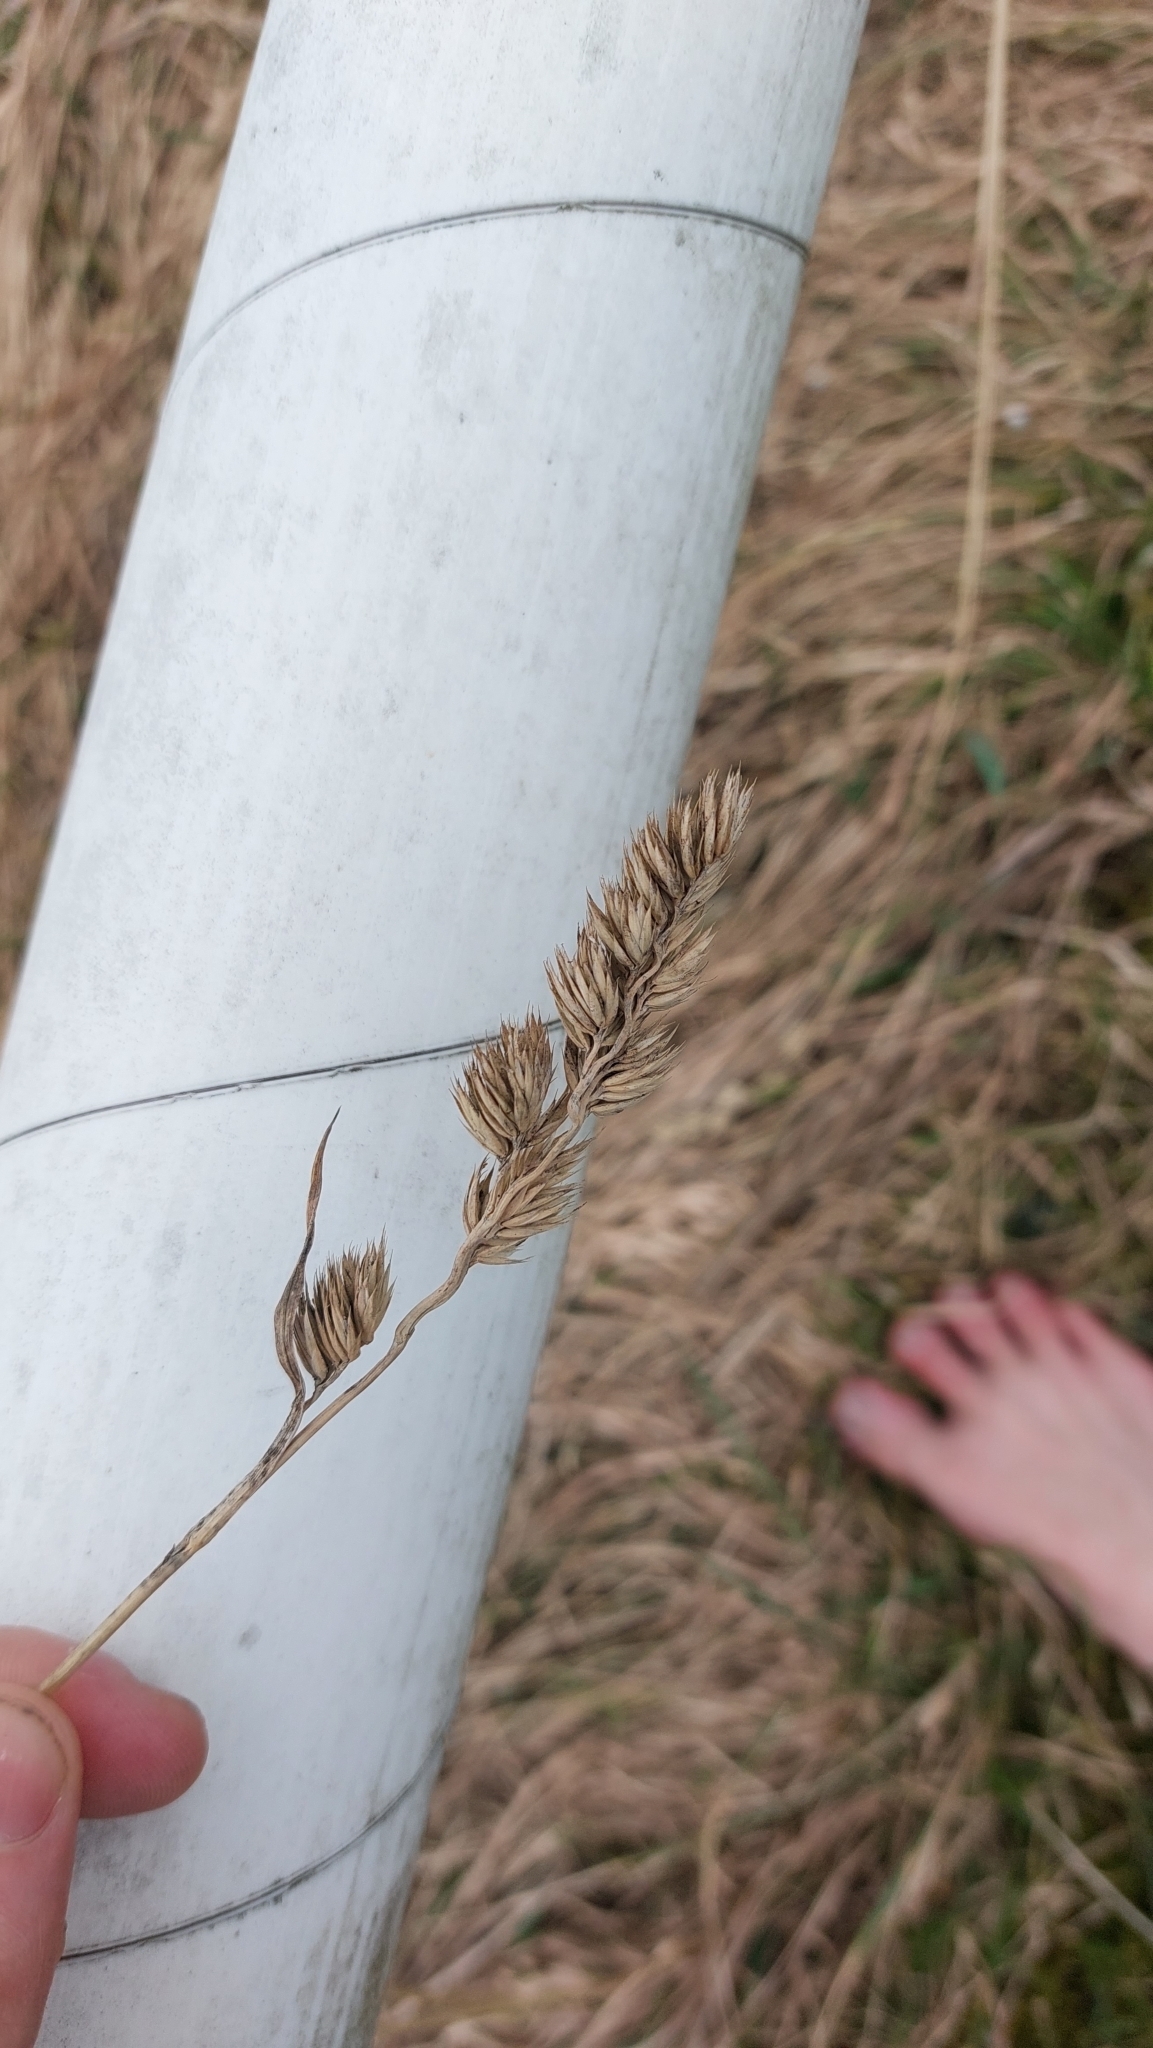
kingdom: Plantae
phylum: Tracheophyta
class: Liliopsida
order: Poales
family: Poaceae
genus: Dactylis
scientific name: Dactylis glomerata
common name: Orchardgrass
